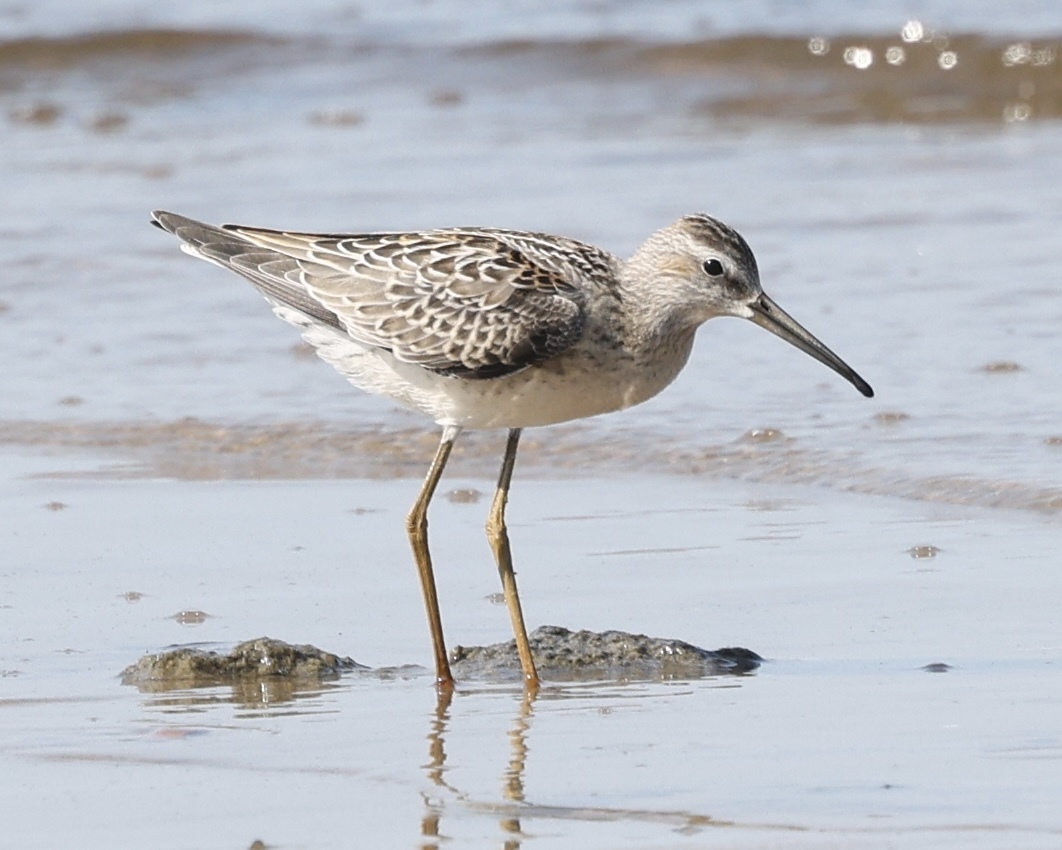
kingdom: Animalia
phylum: Chordata
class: Aves
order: Charadriiformes
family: Scolopacidae
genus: Calidris
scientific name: Calidris himantopus
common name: Stilt sandpiper
